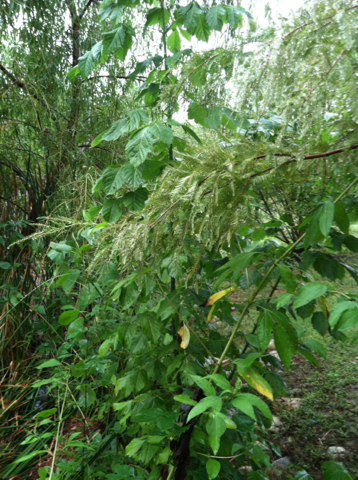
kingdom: Plantae
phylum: Tracheophyta
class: Magnoliopsida
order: Sapindales
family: Sapindaceae
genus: Acer
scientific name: Acer negundo
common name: Ashleaf maple
